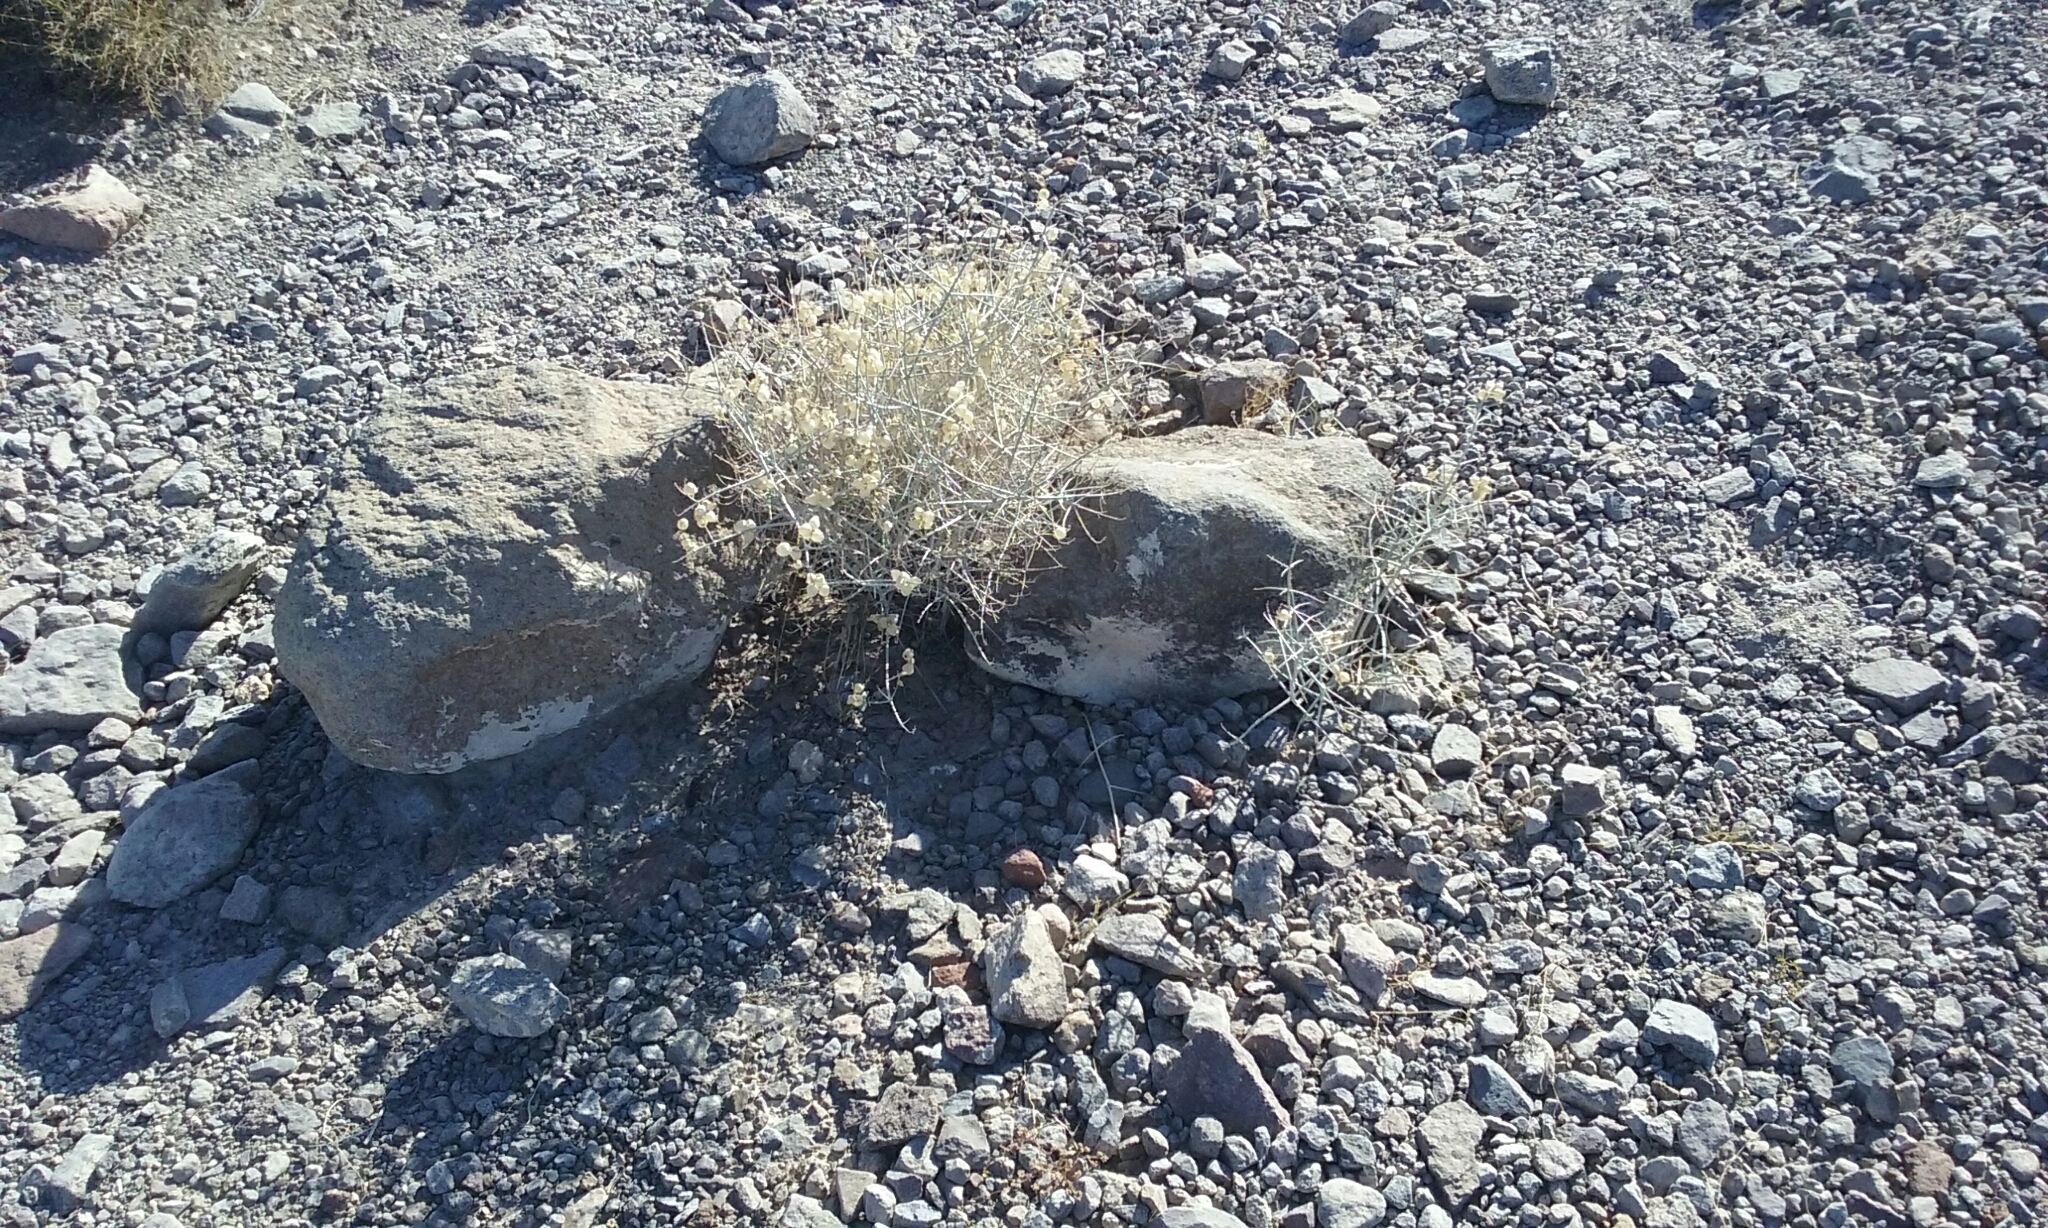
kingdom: Plantae
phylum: Tracheophyta
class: Magnoliopsida
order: Lamiales
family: Lamiaceae
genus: Scutellaria
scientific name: Scutellaria mexicana
